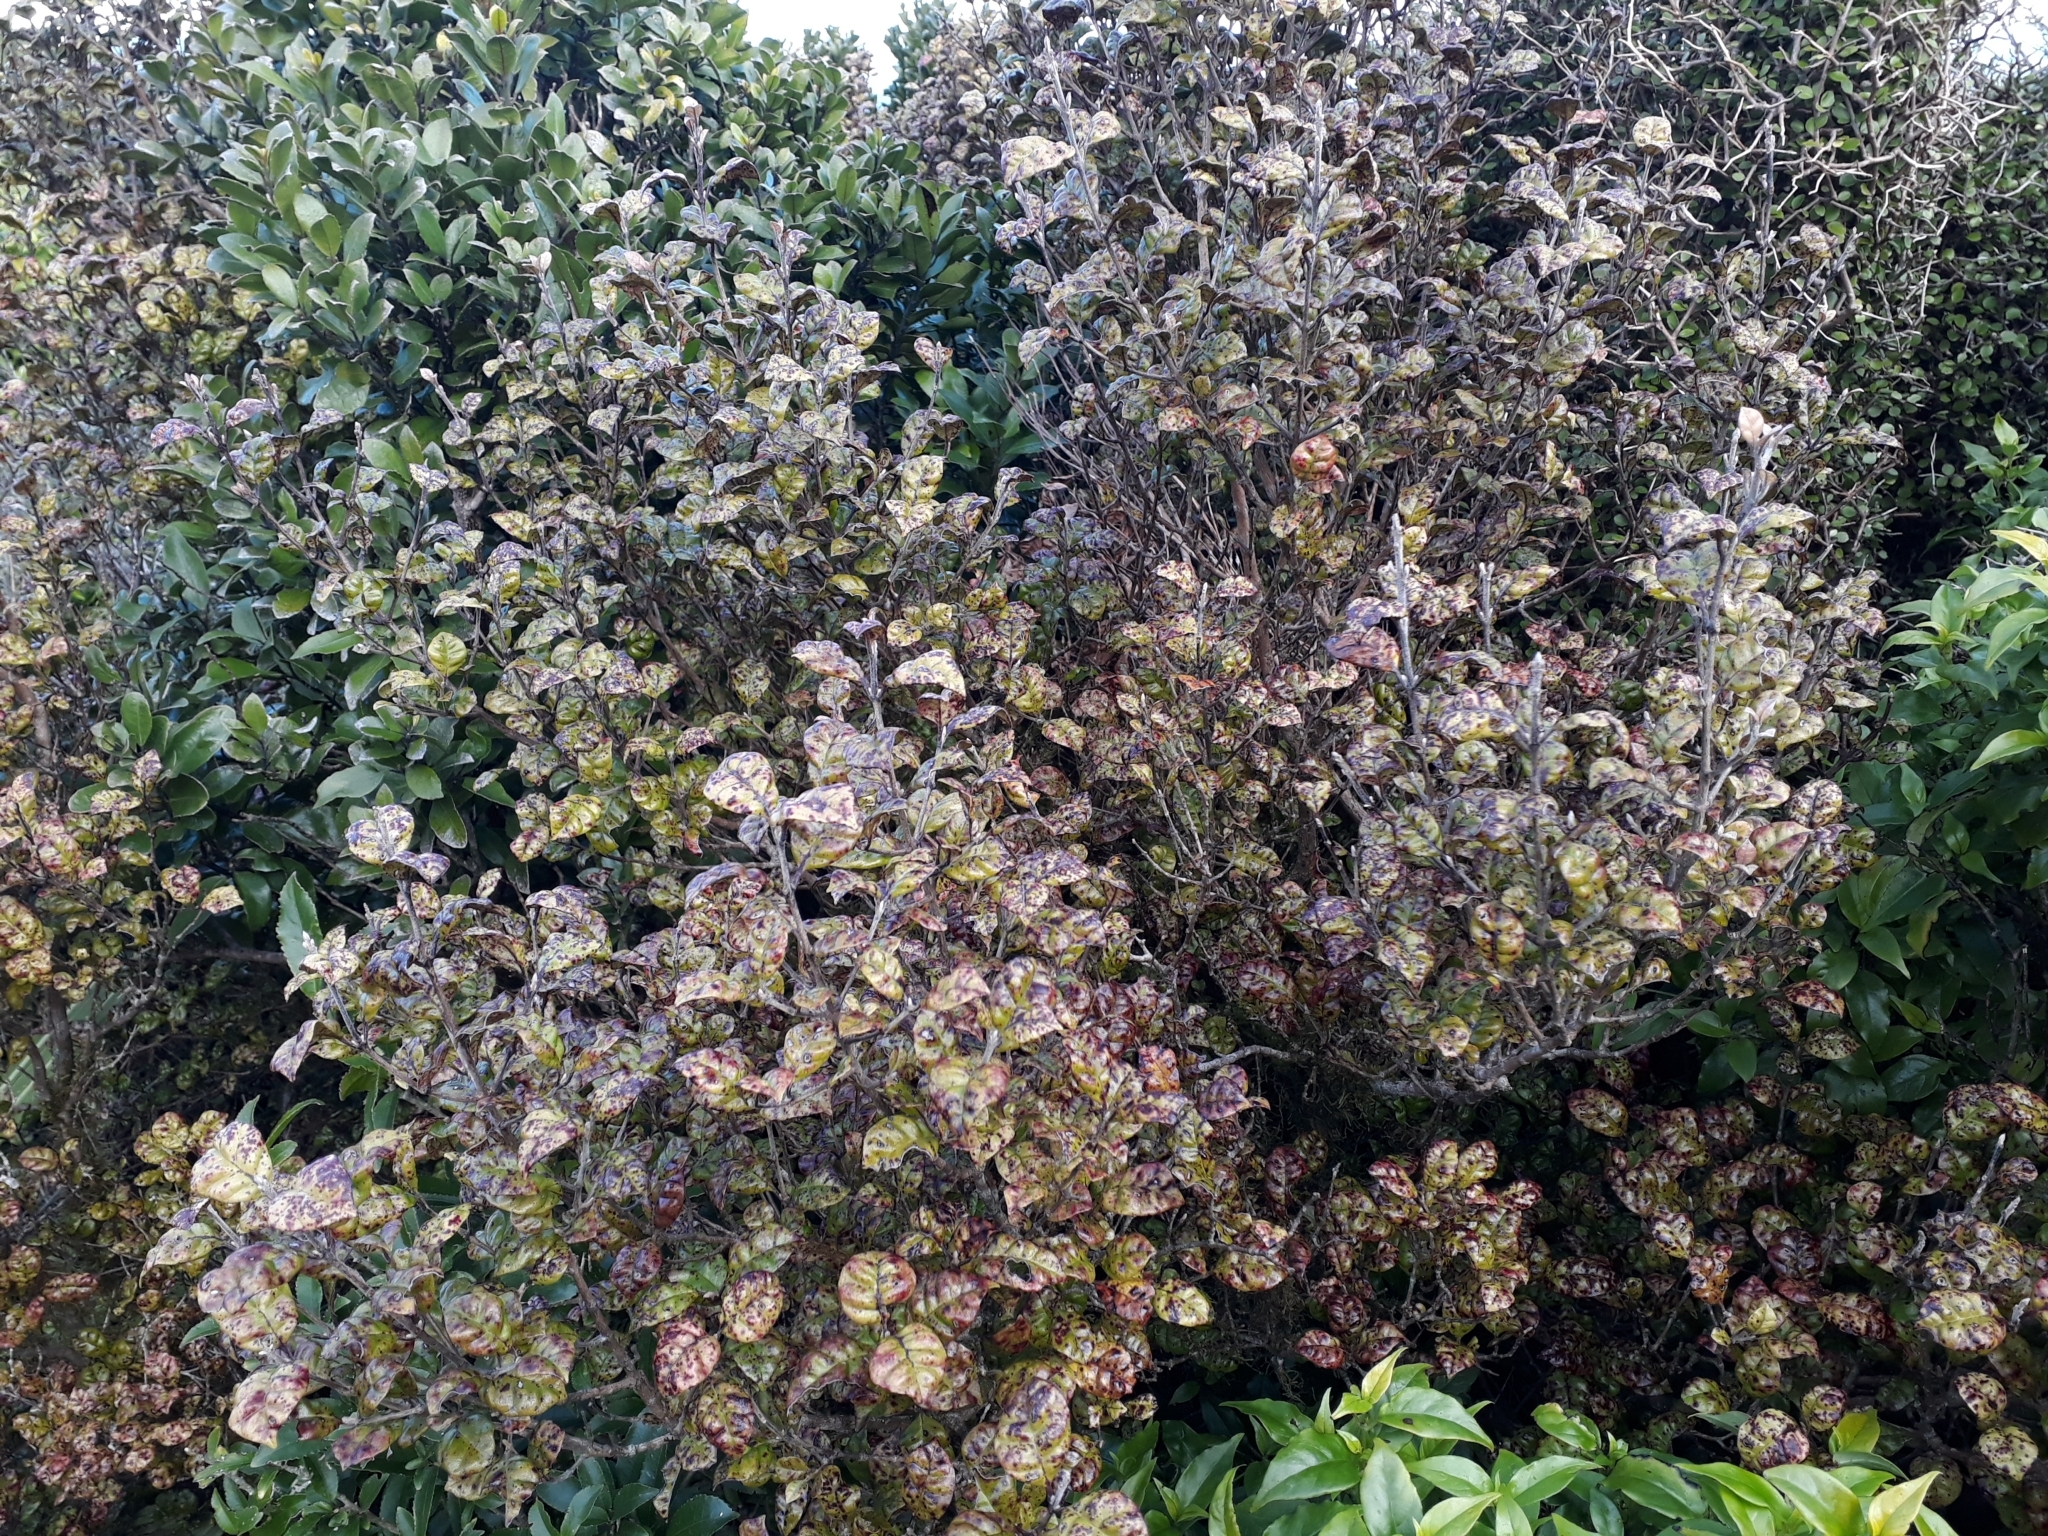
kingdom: Plantae
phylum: Tracheophyta
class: Magnoliopsida
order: Myrtales
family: Myrtaceae
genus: Lophomyrtus
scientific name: Lophomyrtus bullata
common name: Rama rama
